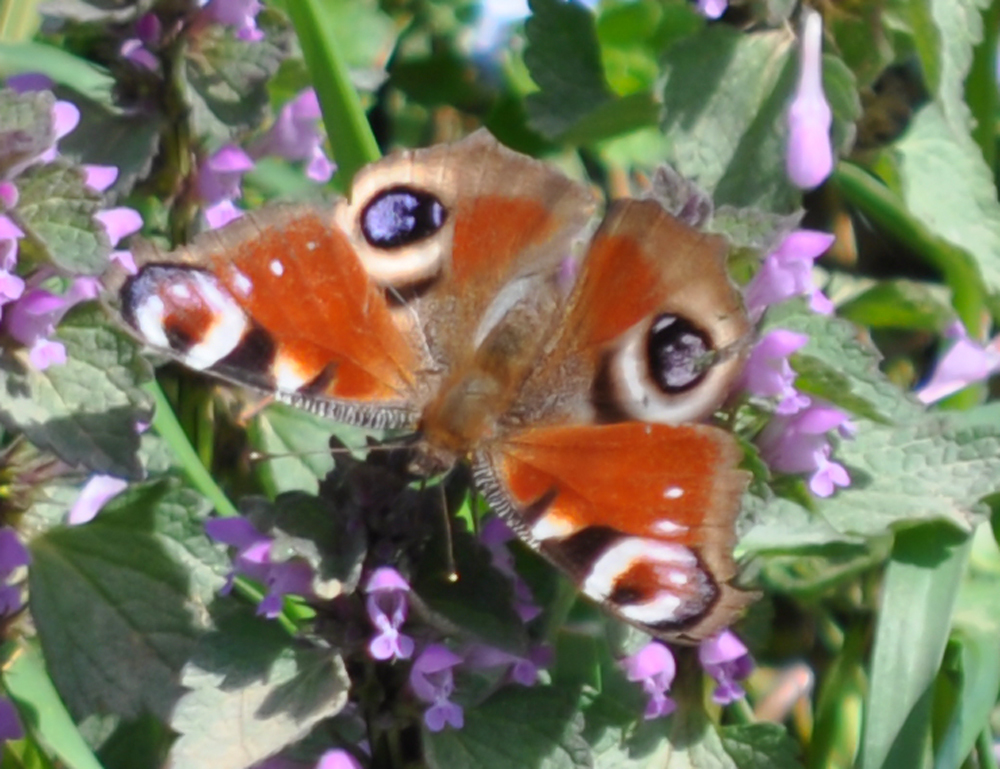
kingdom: Animalia
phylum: Arthropoda
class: Insecta
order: Lepidoptera
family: Nymphalidae
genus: Aglais
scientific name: Aglais io
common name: Peacock
